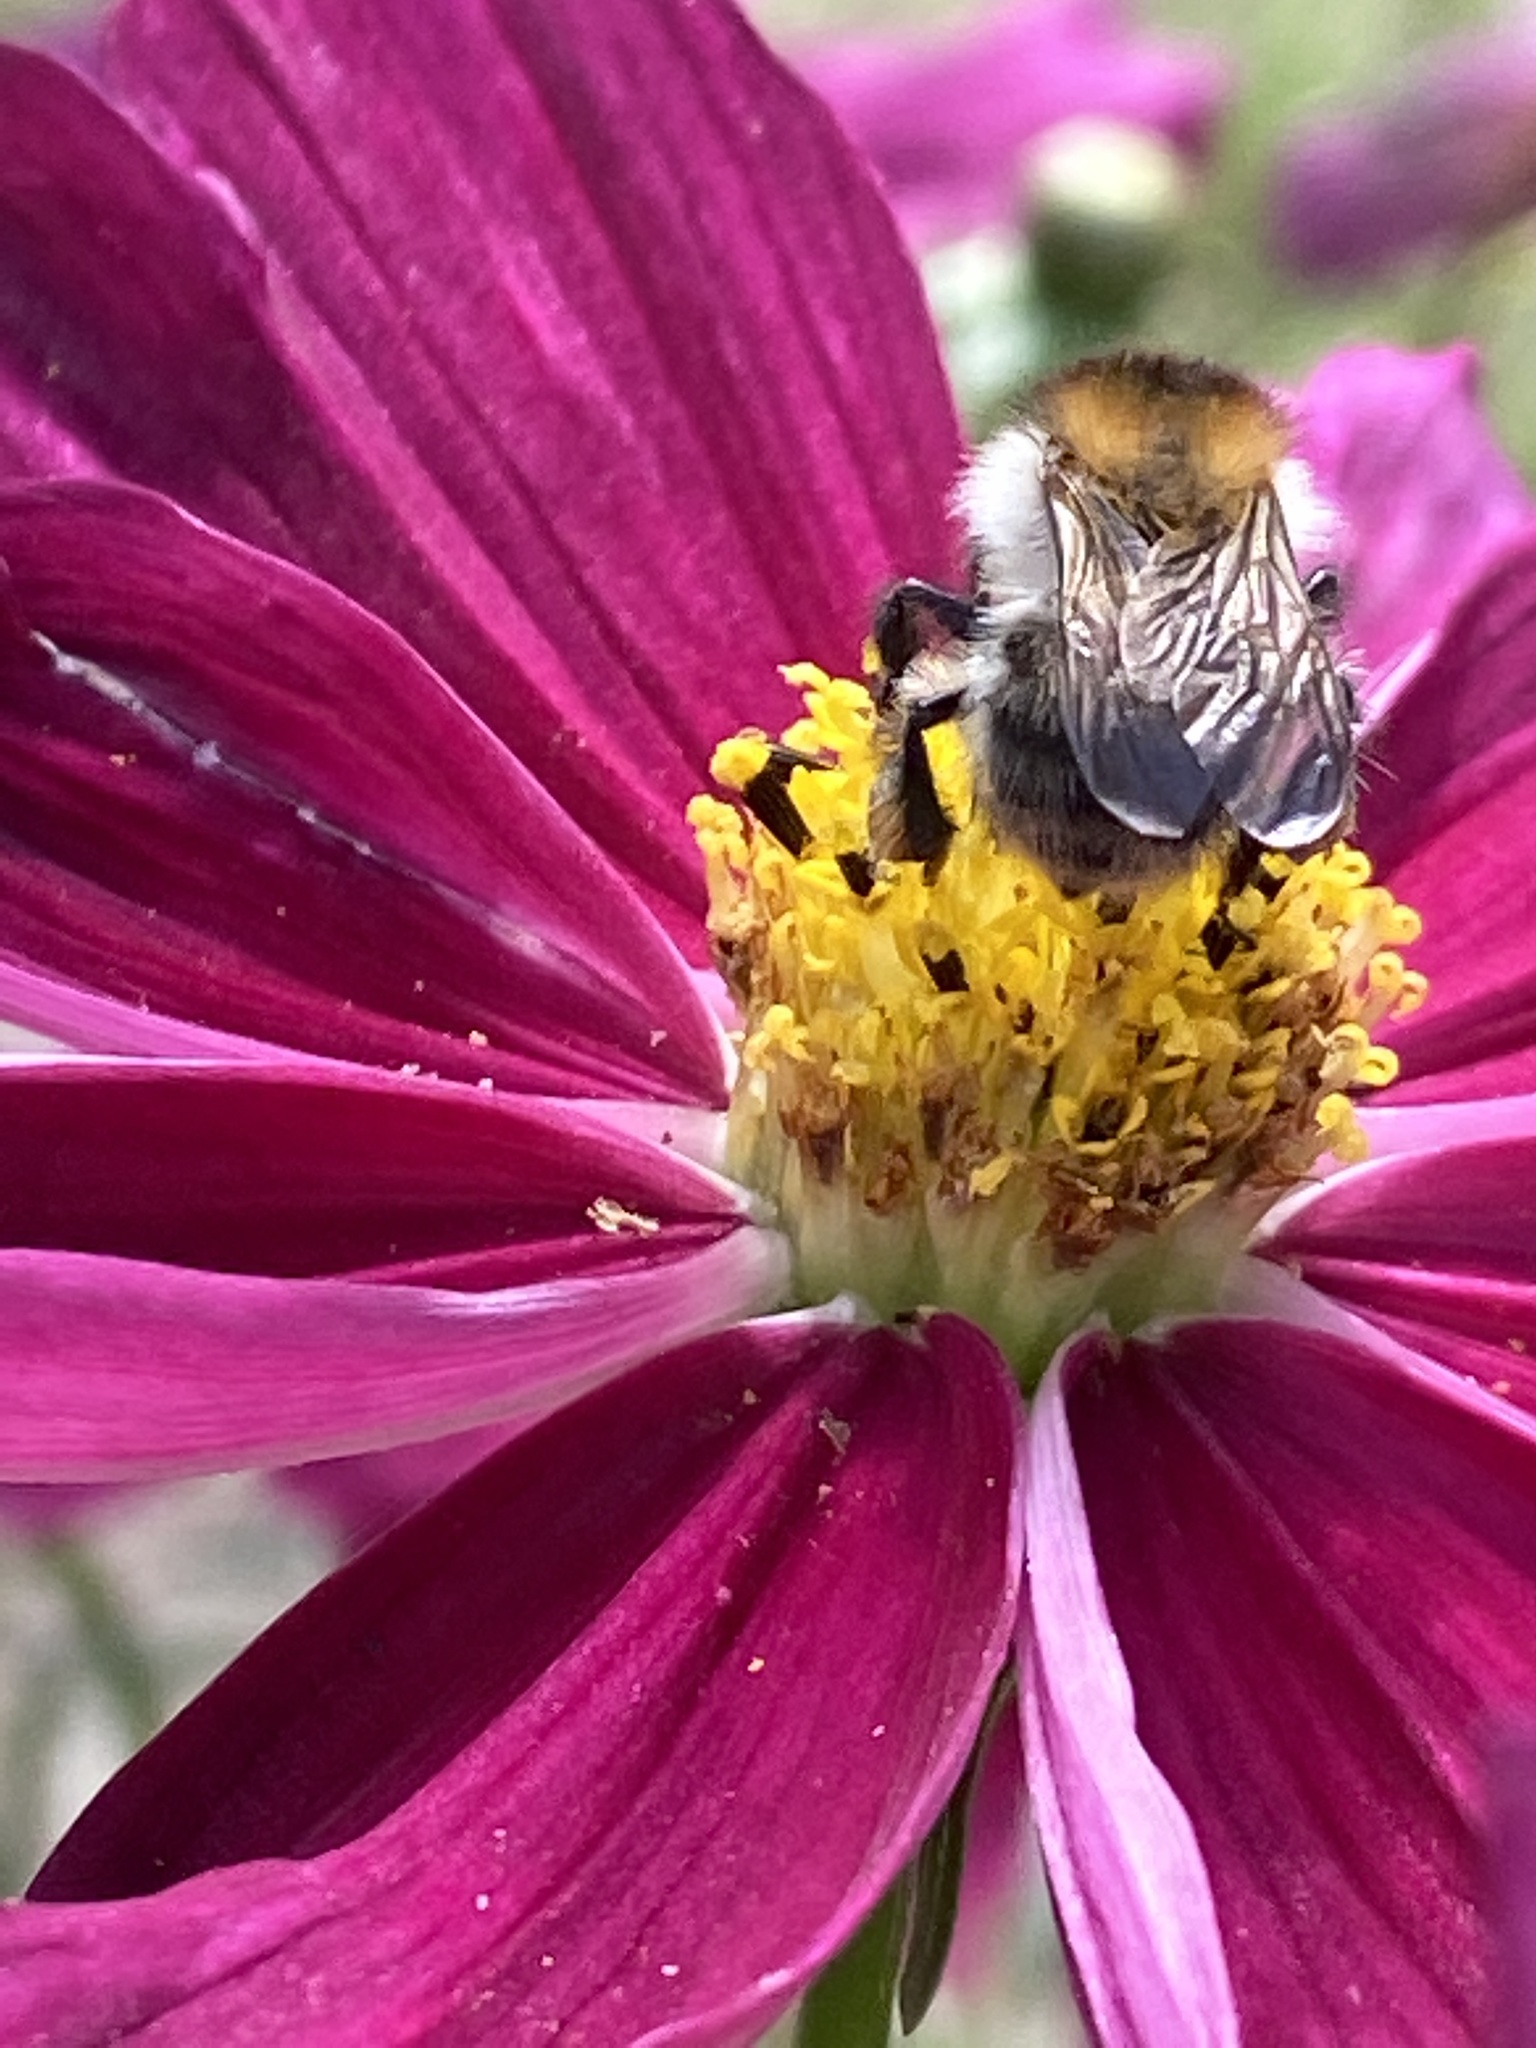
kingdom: Animalia
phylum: Arthropoda
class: Insecta
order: Hymenoptera
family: Apidae
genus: Bombus
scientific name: Bombus pascuorum
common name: Common carder bee
